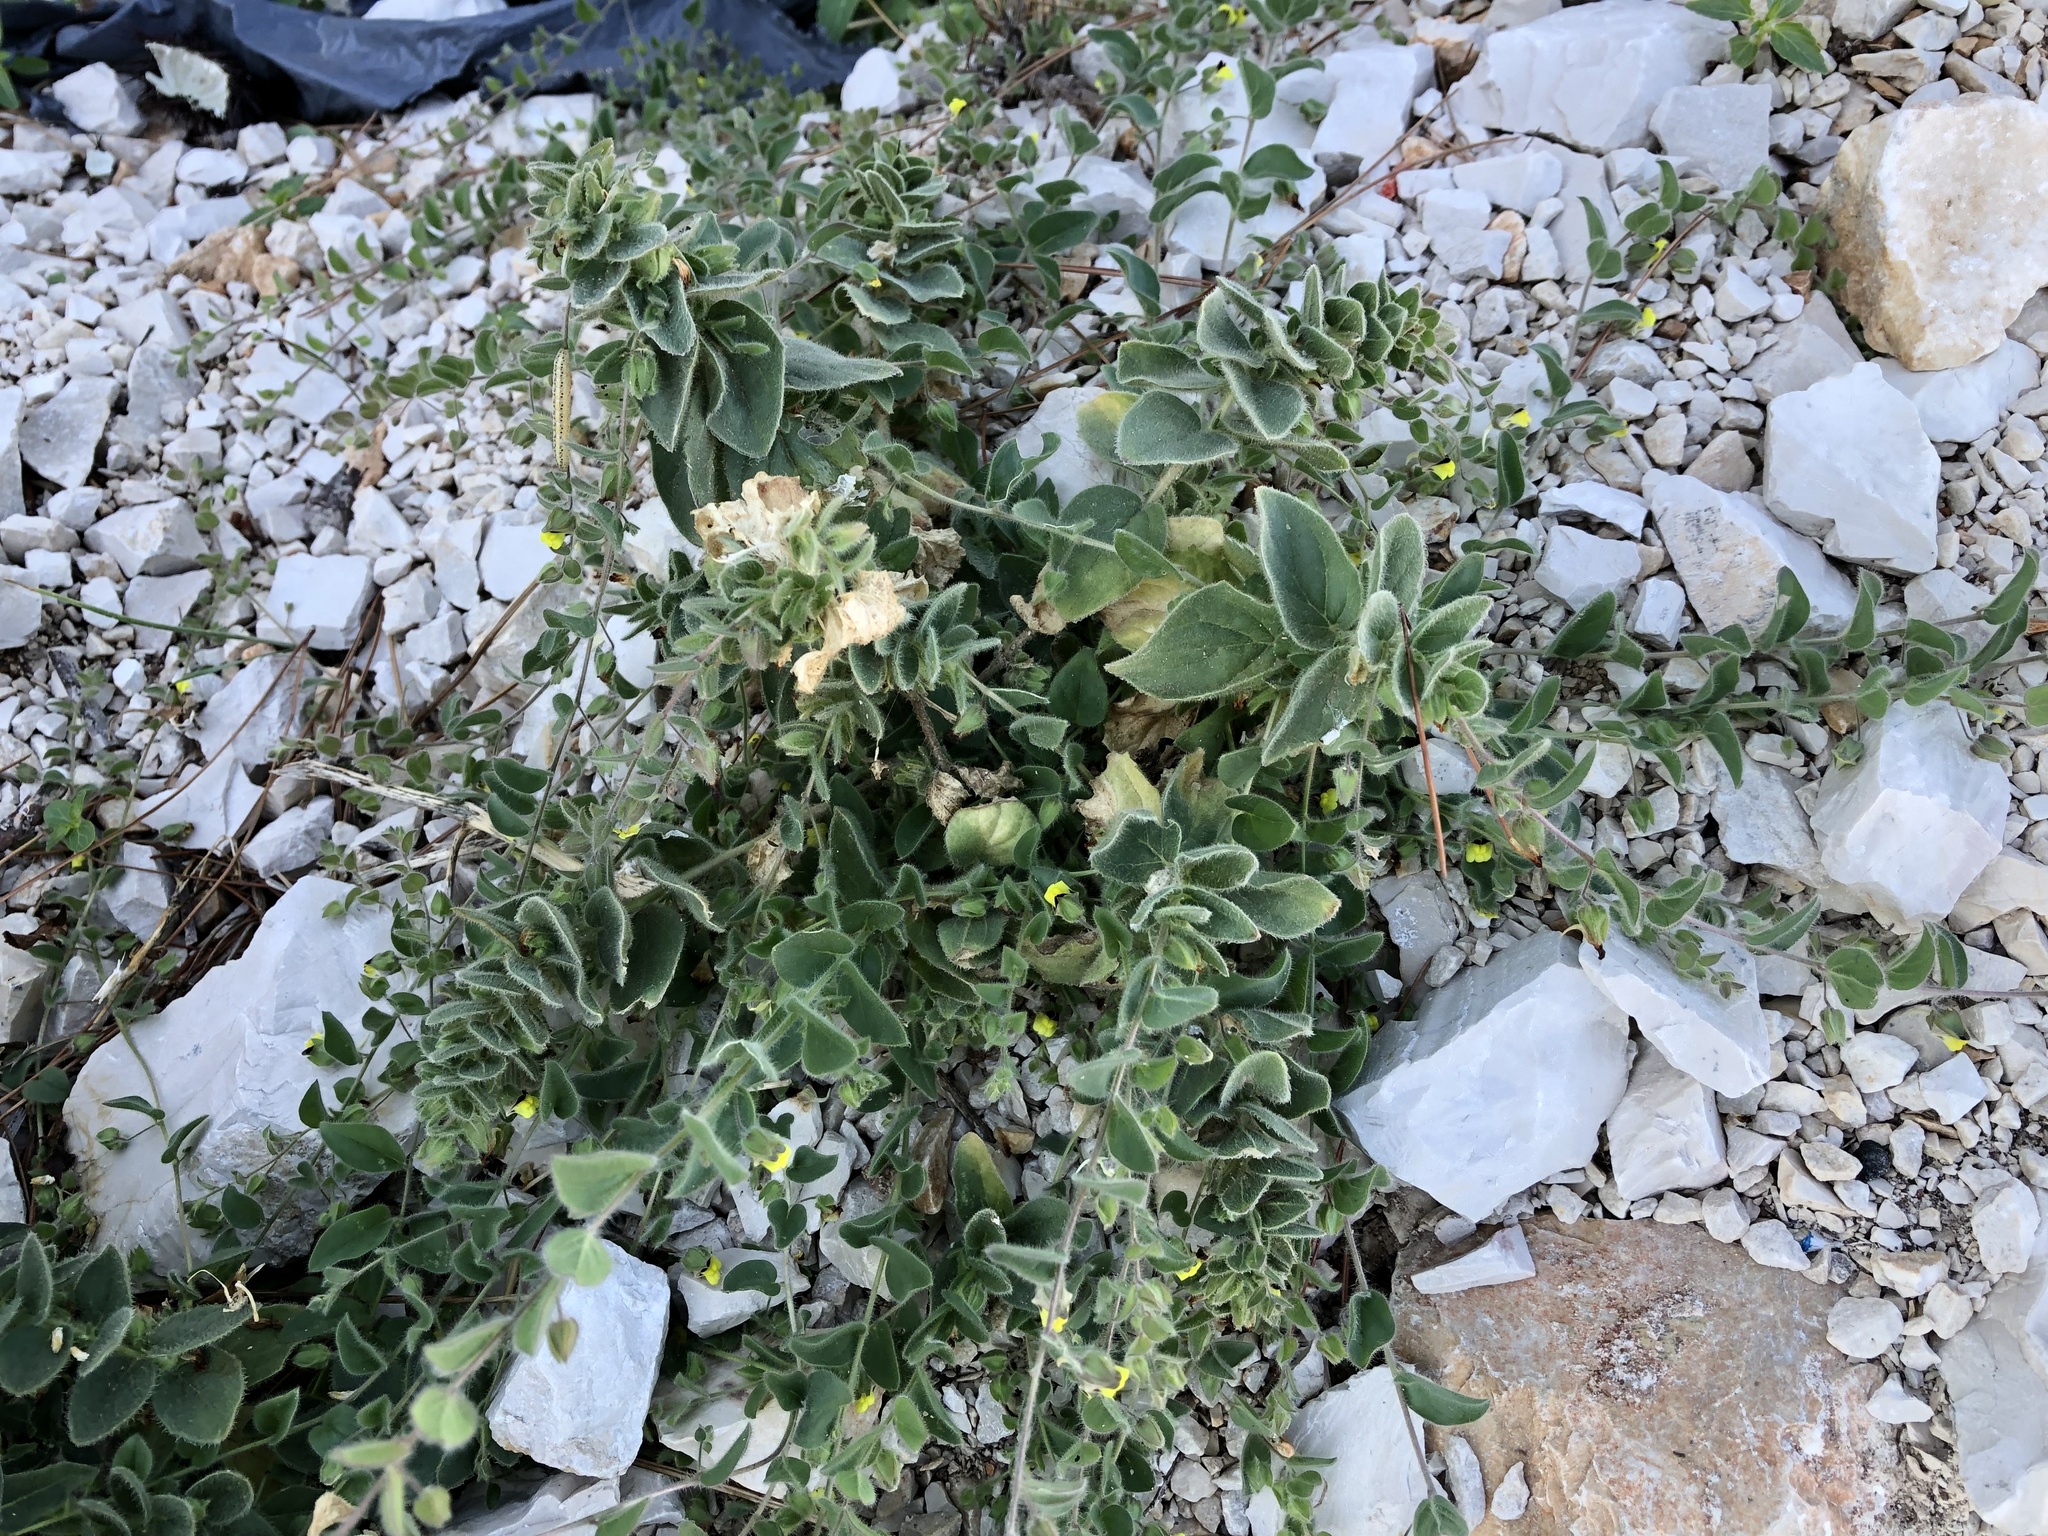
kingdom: Plantae
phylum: Tracheophyta
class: Magnoliopsida
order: Lamiales
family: Plantaginaceae
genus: Kickxia
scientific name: Kickxia spuria
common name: Round-leaved fluellen
